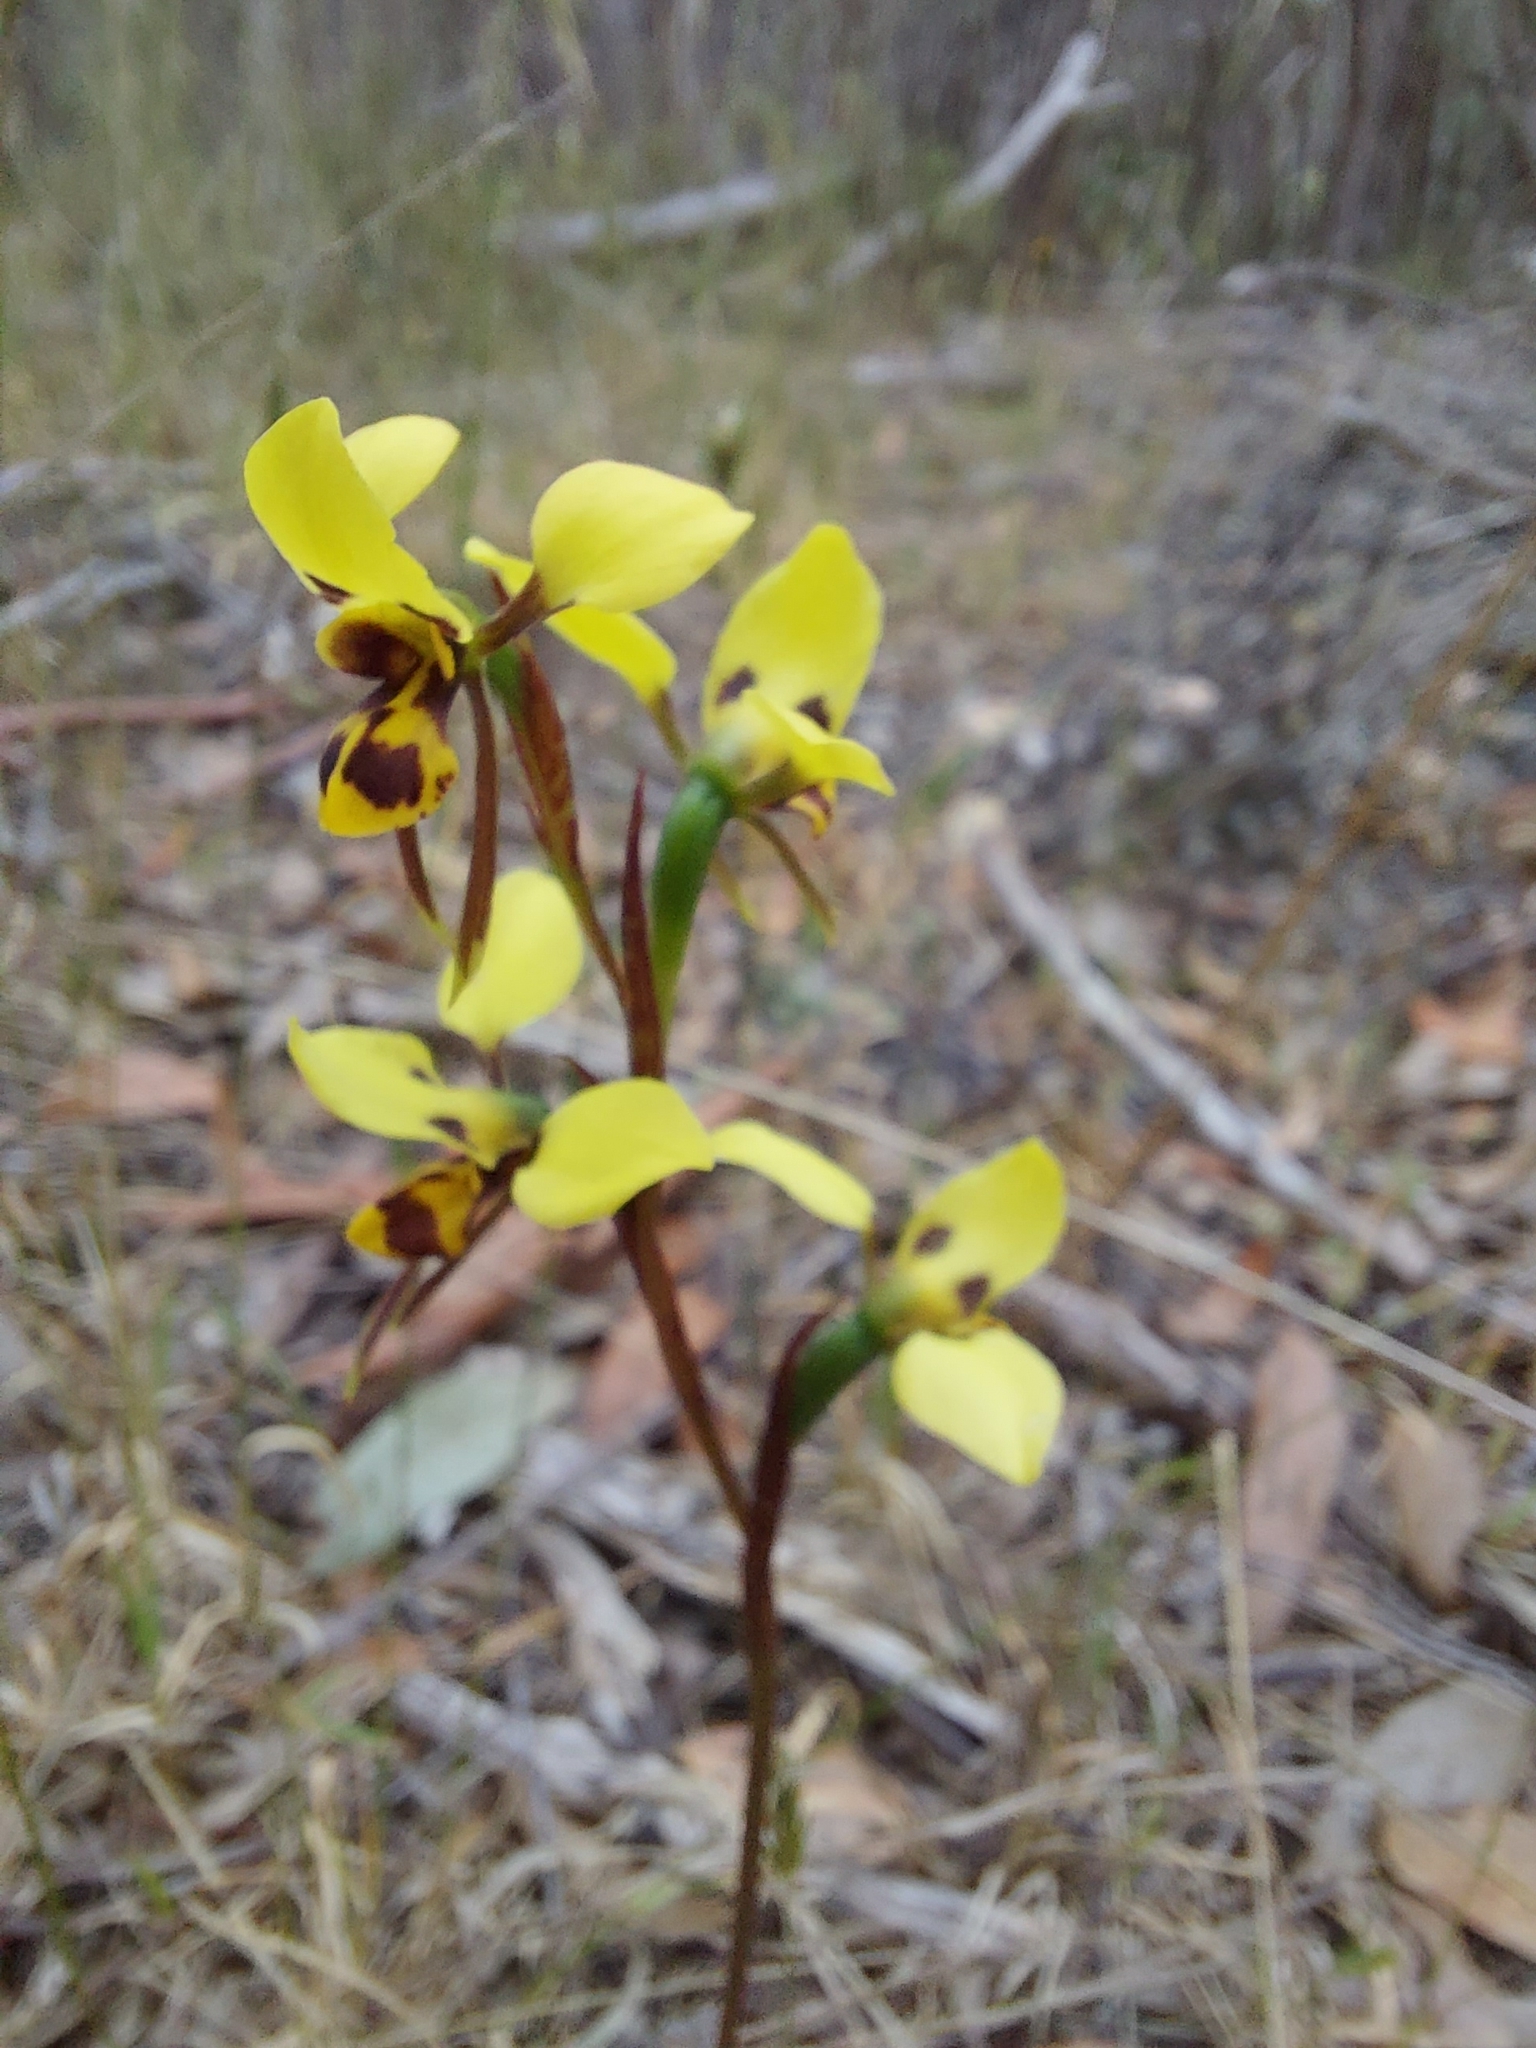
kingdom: Plantae
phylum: Tracheophyta
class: Liliopsida
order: Asparagales
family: Orchidaceae
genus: Diuris
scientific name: Diuris sulphurea
